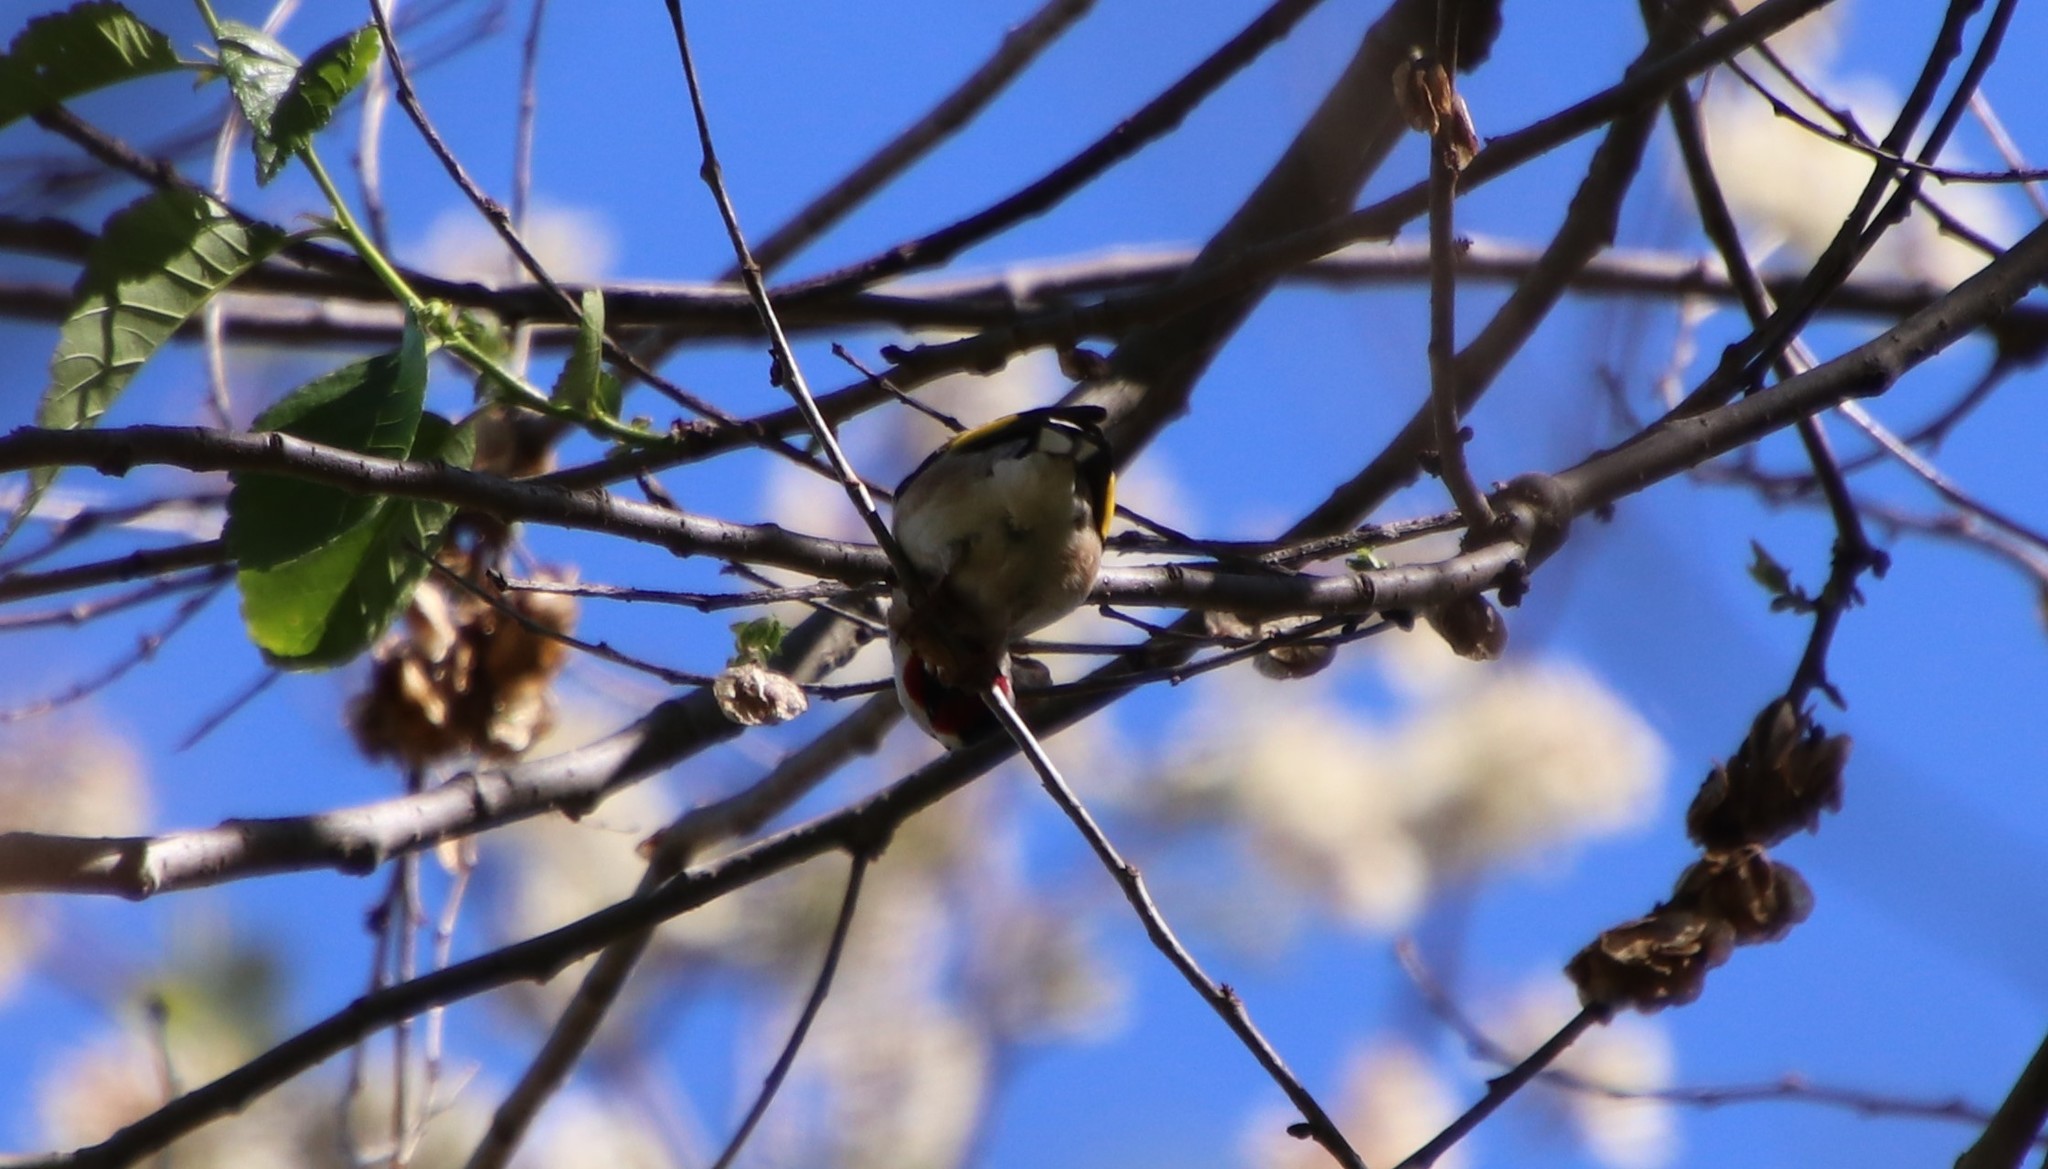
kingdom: Animalia
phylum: Chordata
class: Aves
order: Passeriformes
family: Fringillidae
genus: Carduelis
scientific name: Carduelis carduelis
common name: European goldfinch
